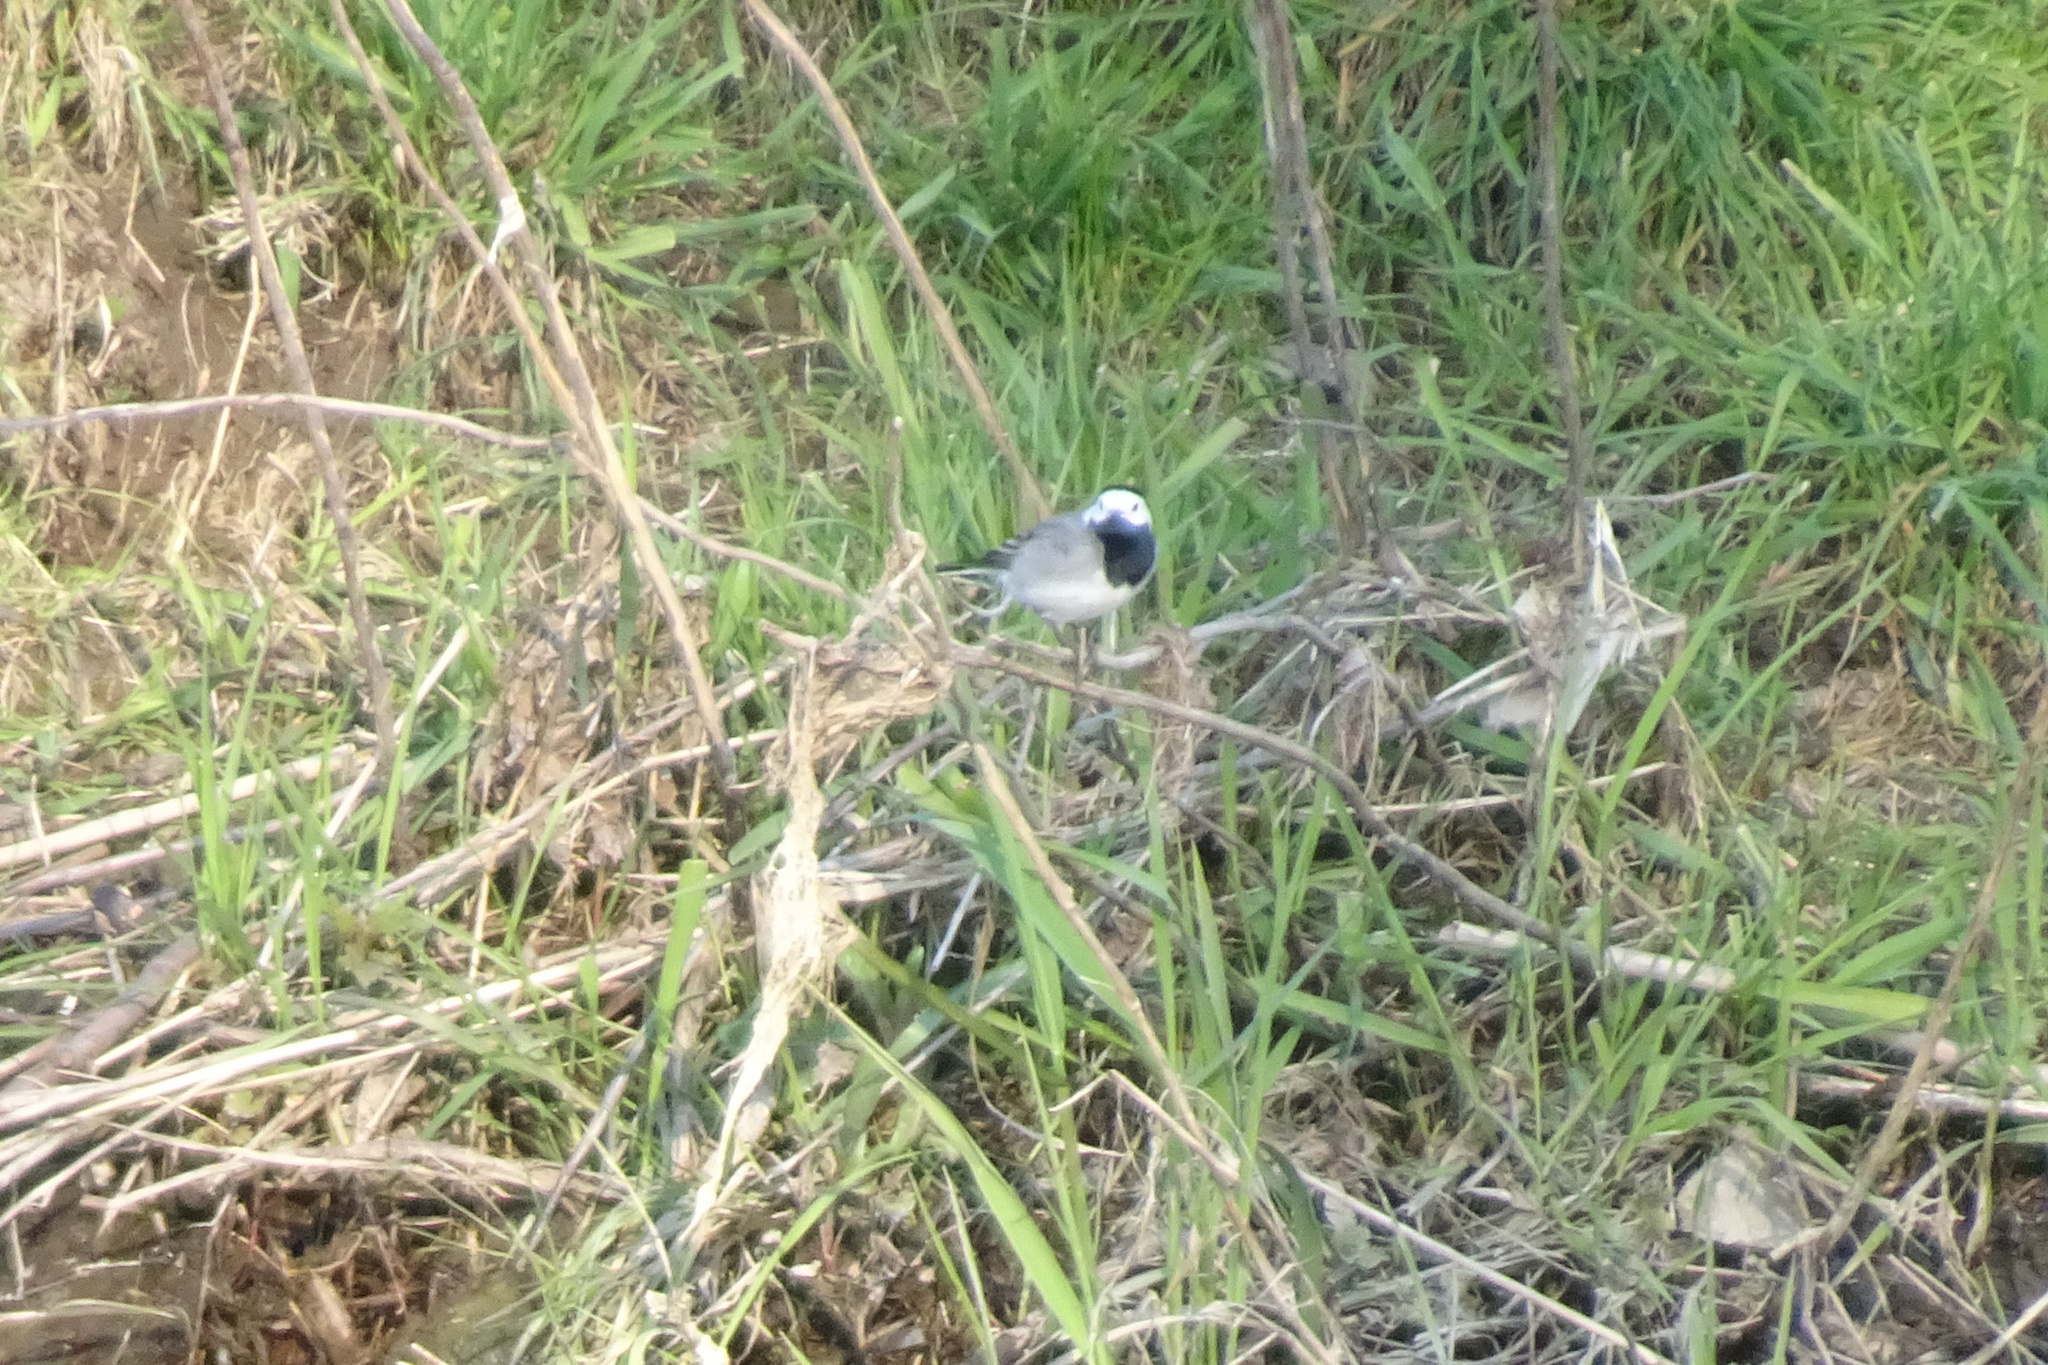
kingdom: Animalia
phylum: Chordata
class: Aves
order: Passeriformes
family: Motacillidae
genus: Motacilla
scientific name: Motacilla alba
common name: White wagtail
